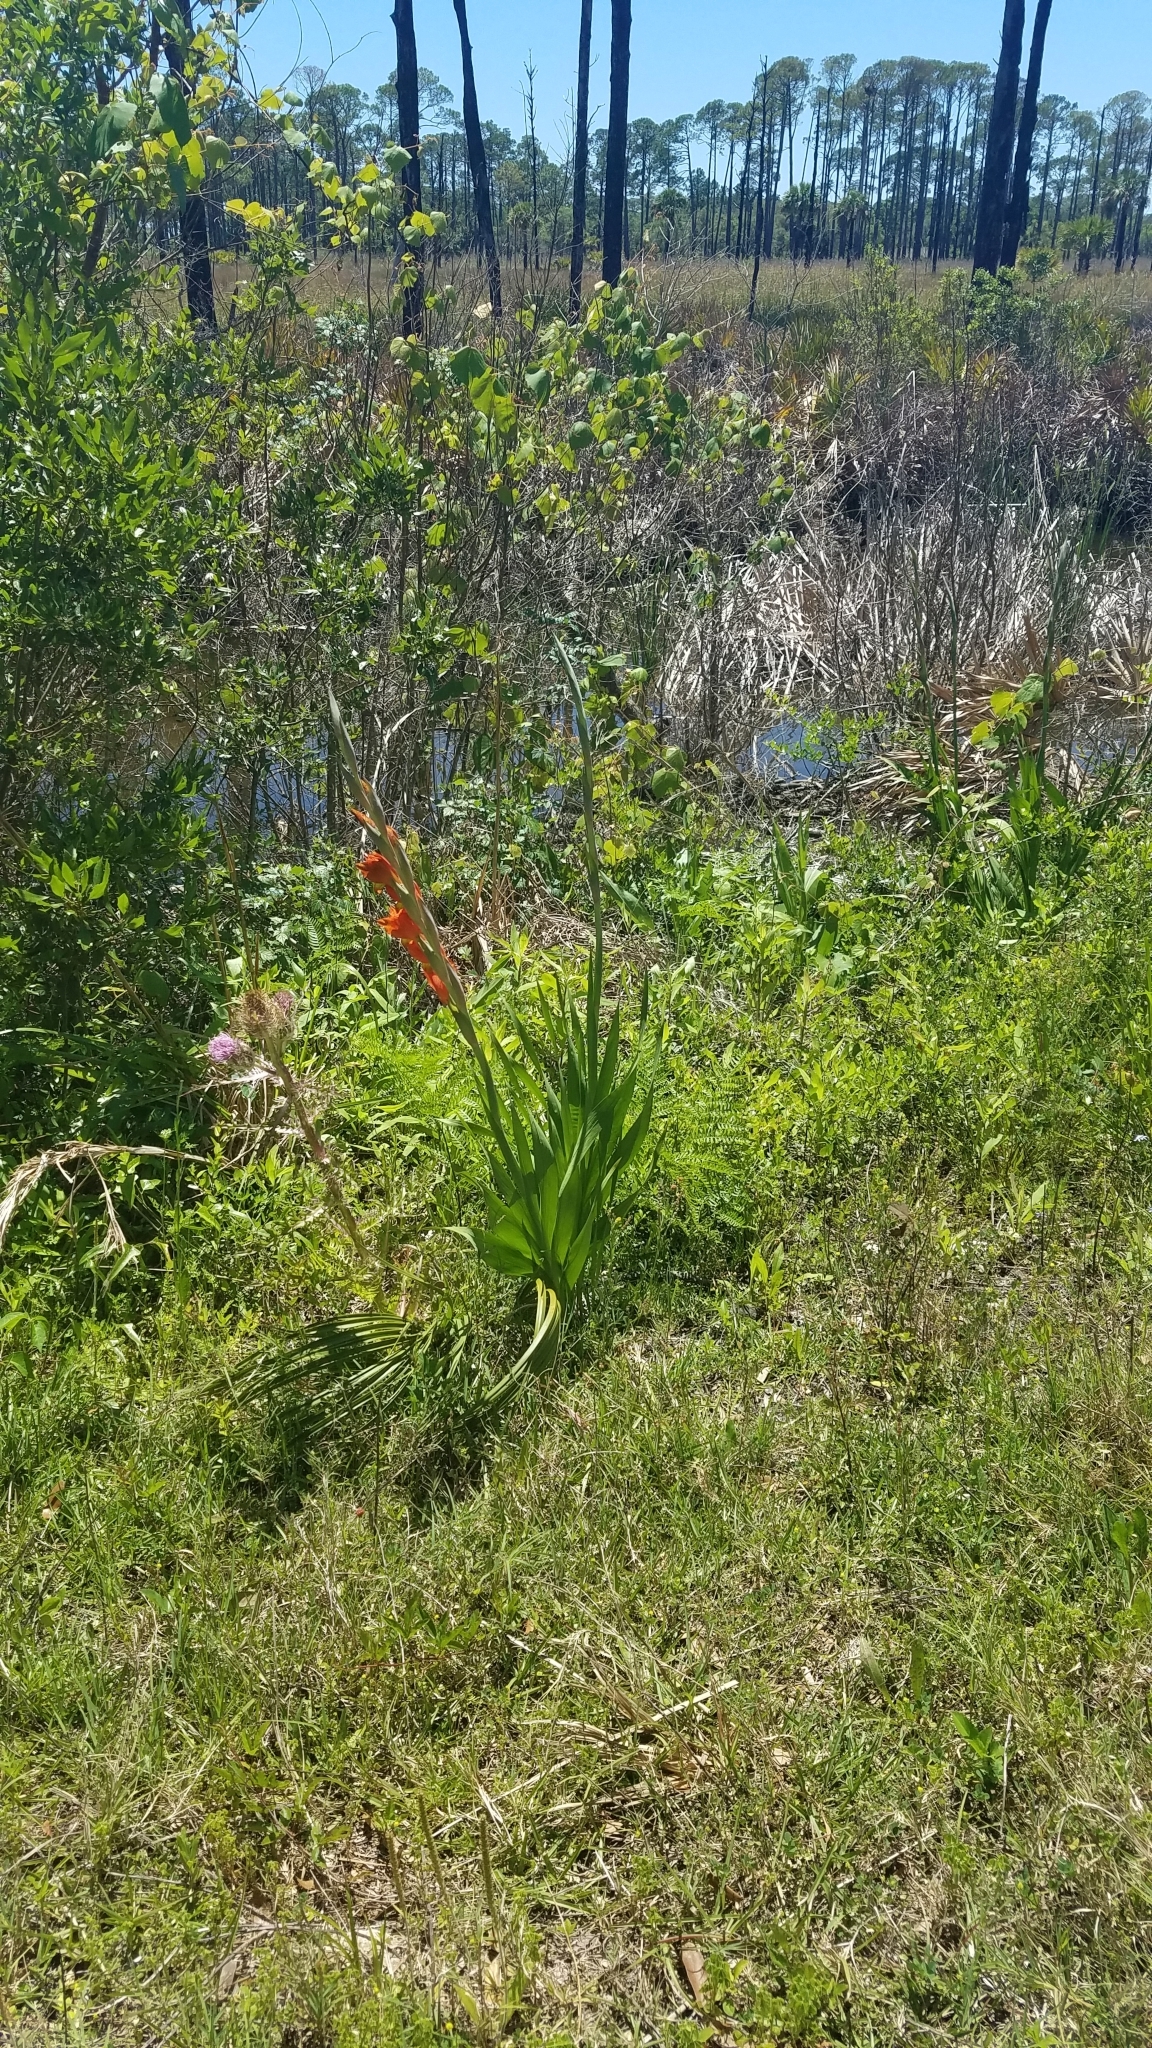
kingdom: Plantae
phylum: Tracheophyta
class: Liliopsida
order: Asparagales
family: Iridaceae
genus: Gladiolus
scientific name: Gladiolus dalenii
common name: Cornflag
